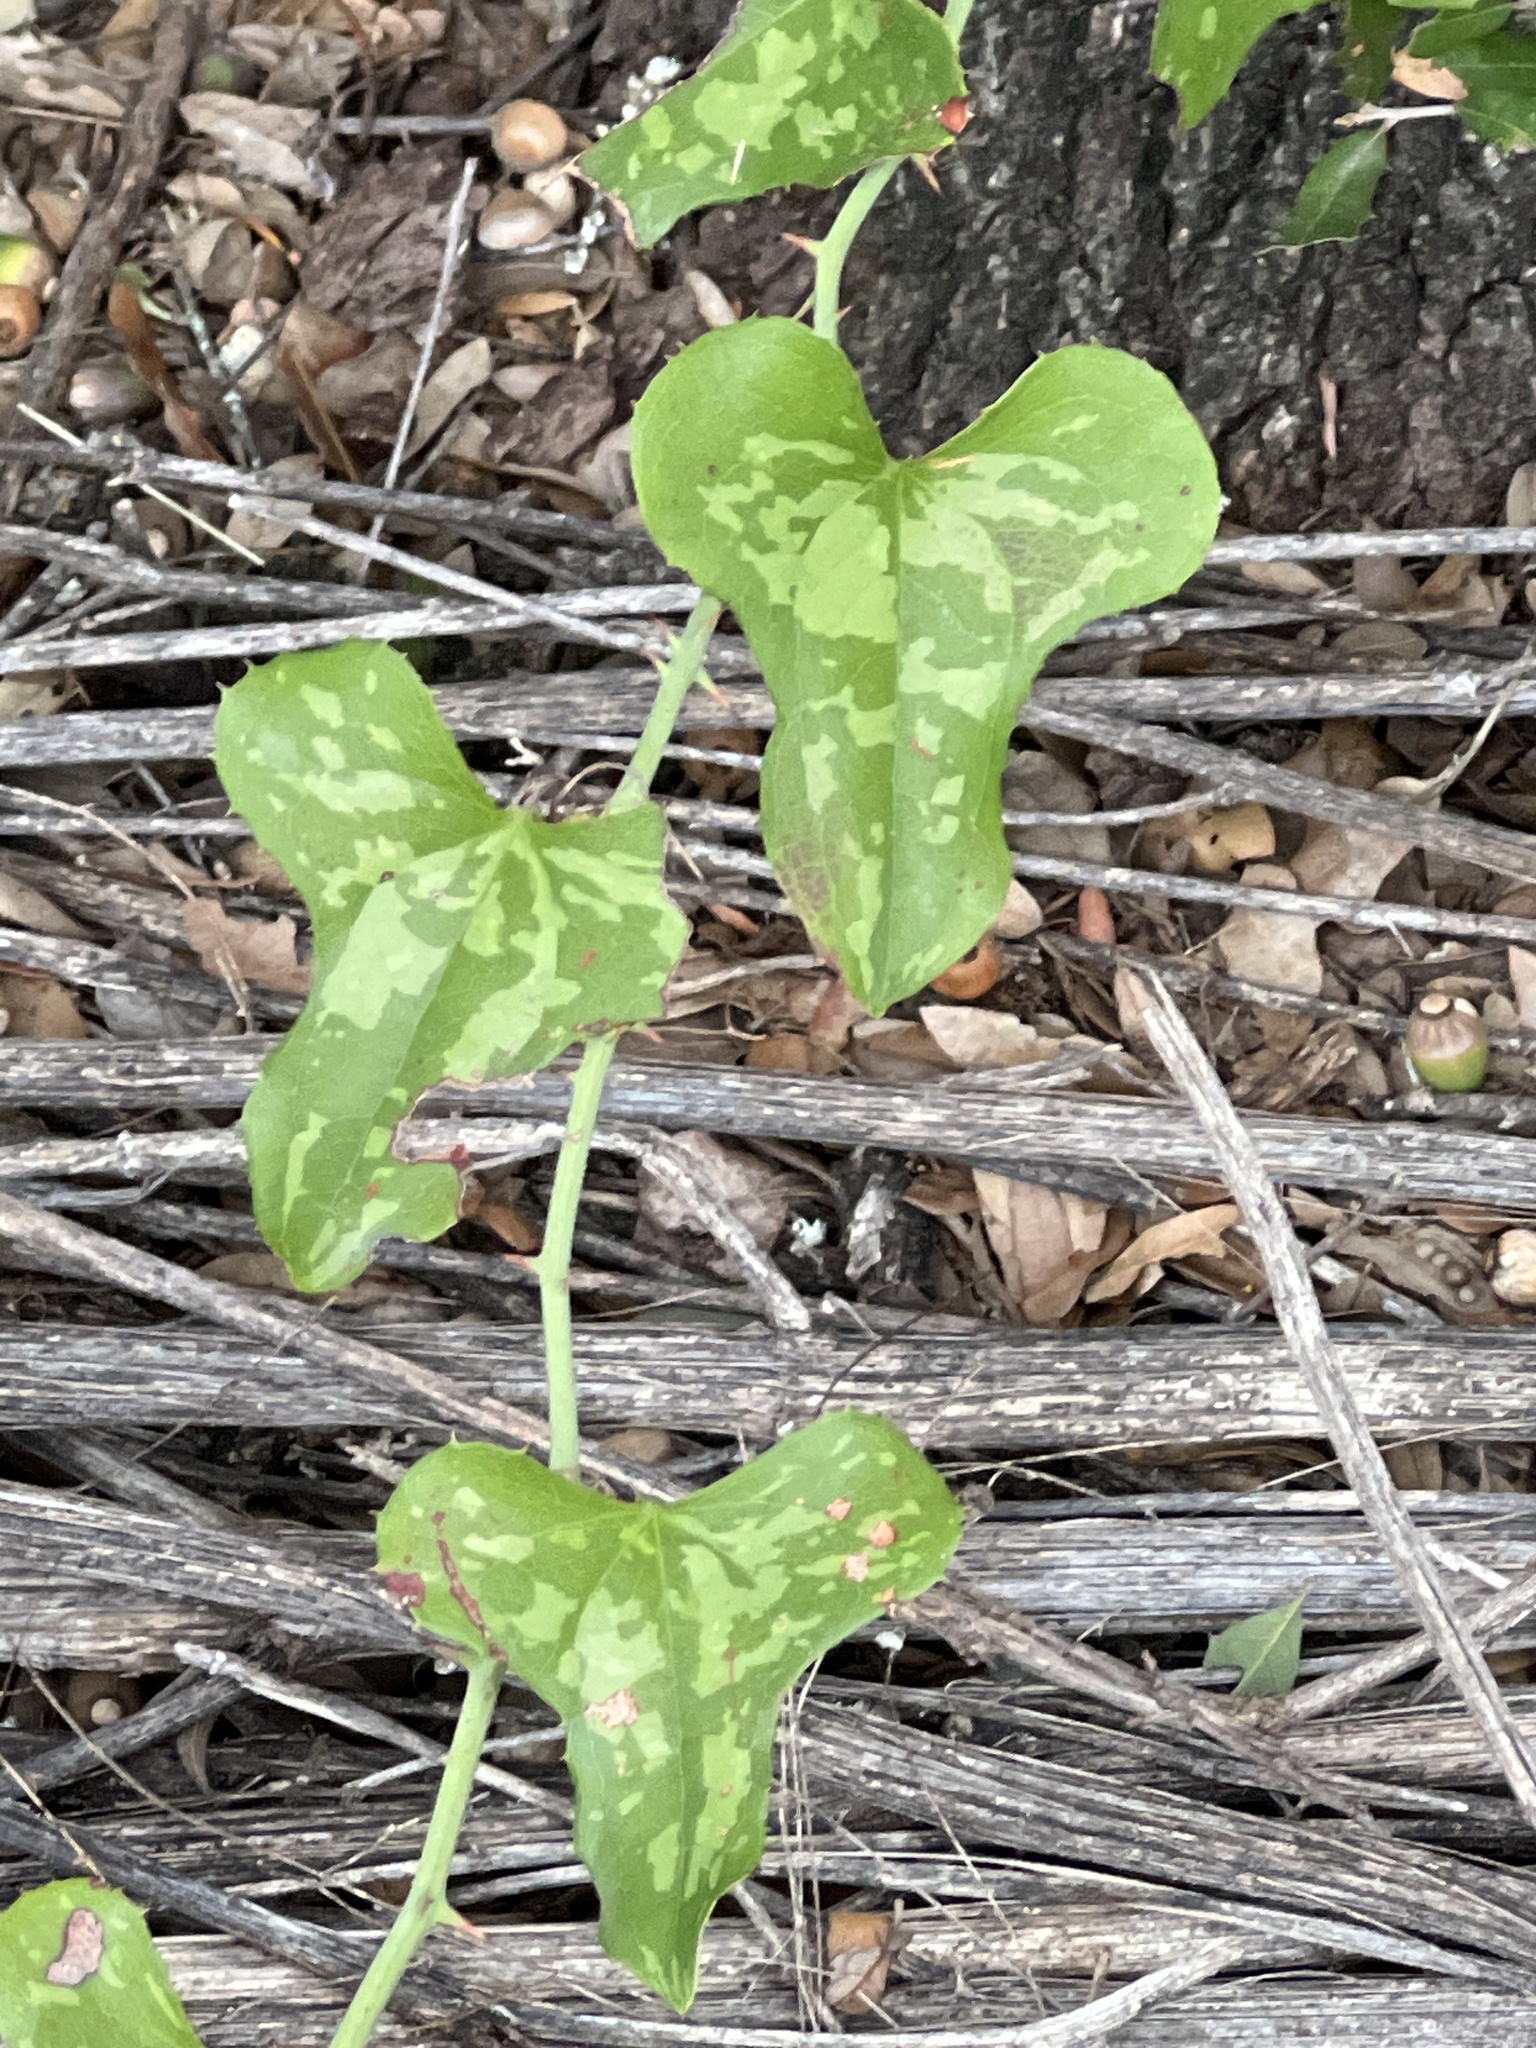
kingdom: Plantae
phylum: Tracheophyta
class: Liliopsida
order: Liliales
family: Smilacaceae
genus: Smilax
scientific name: Smilax bona-nox
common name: Catbrier
